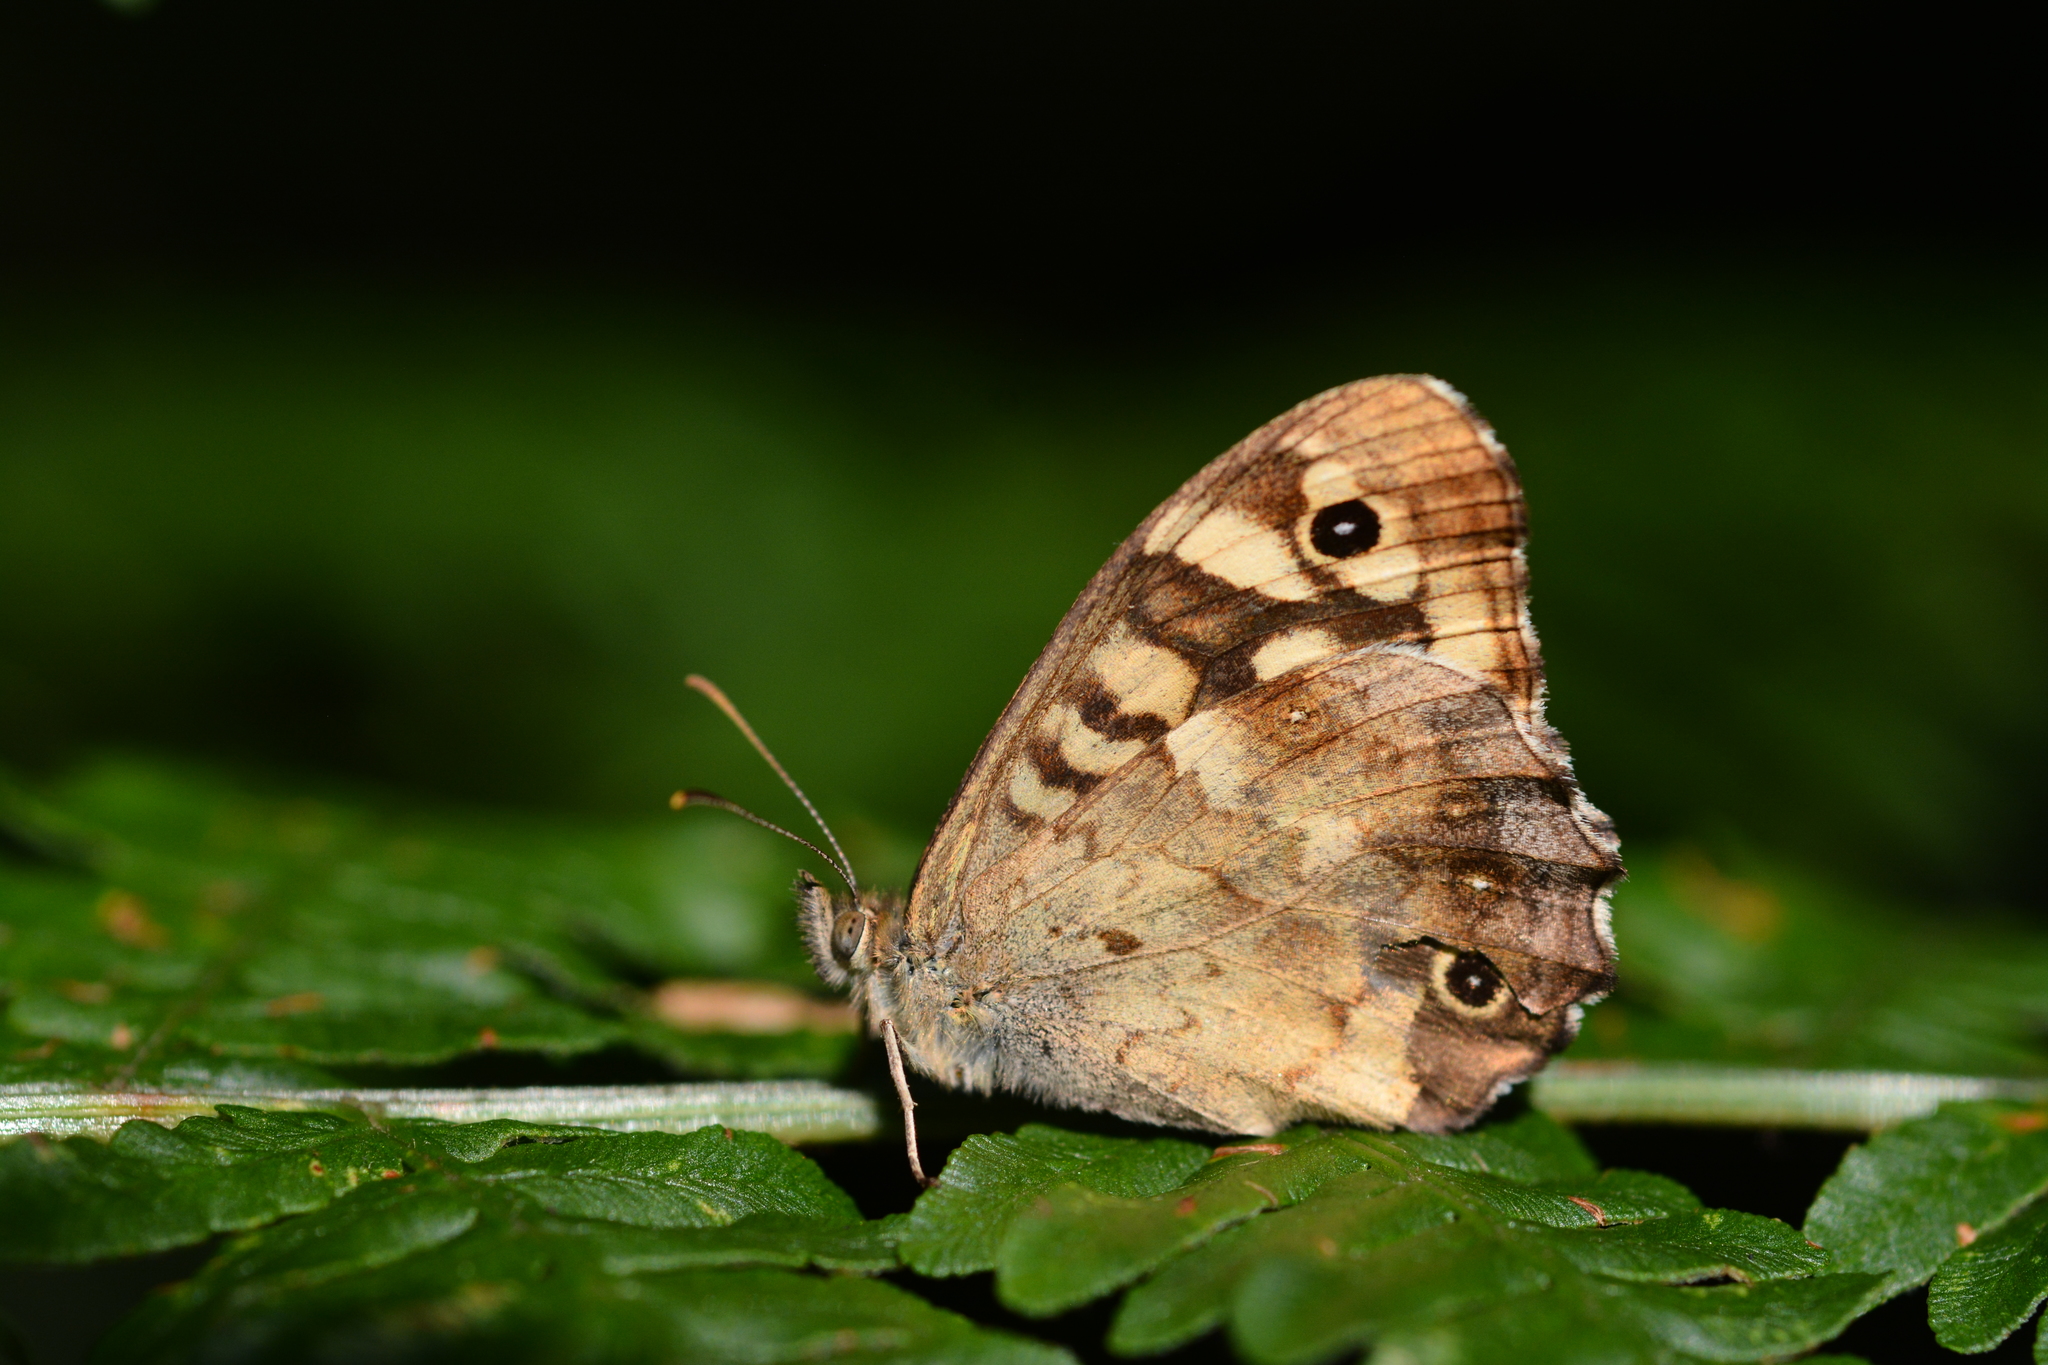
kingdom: Animalia
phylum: Arthropoda
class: Insecta
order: Lepidoptera
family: Nymphalidae
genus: Pararge
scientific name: Pararge aegeria
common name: Speckled wood
